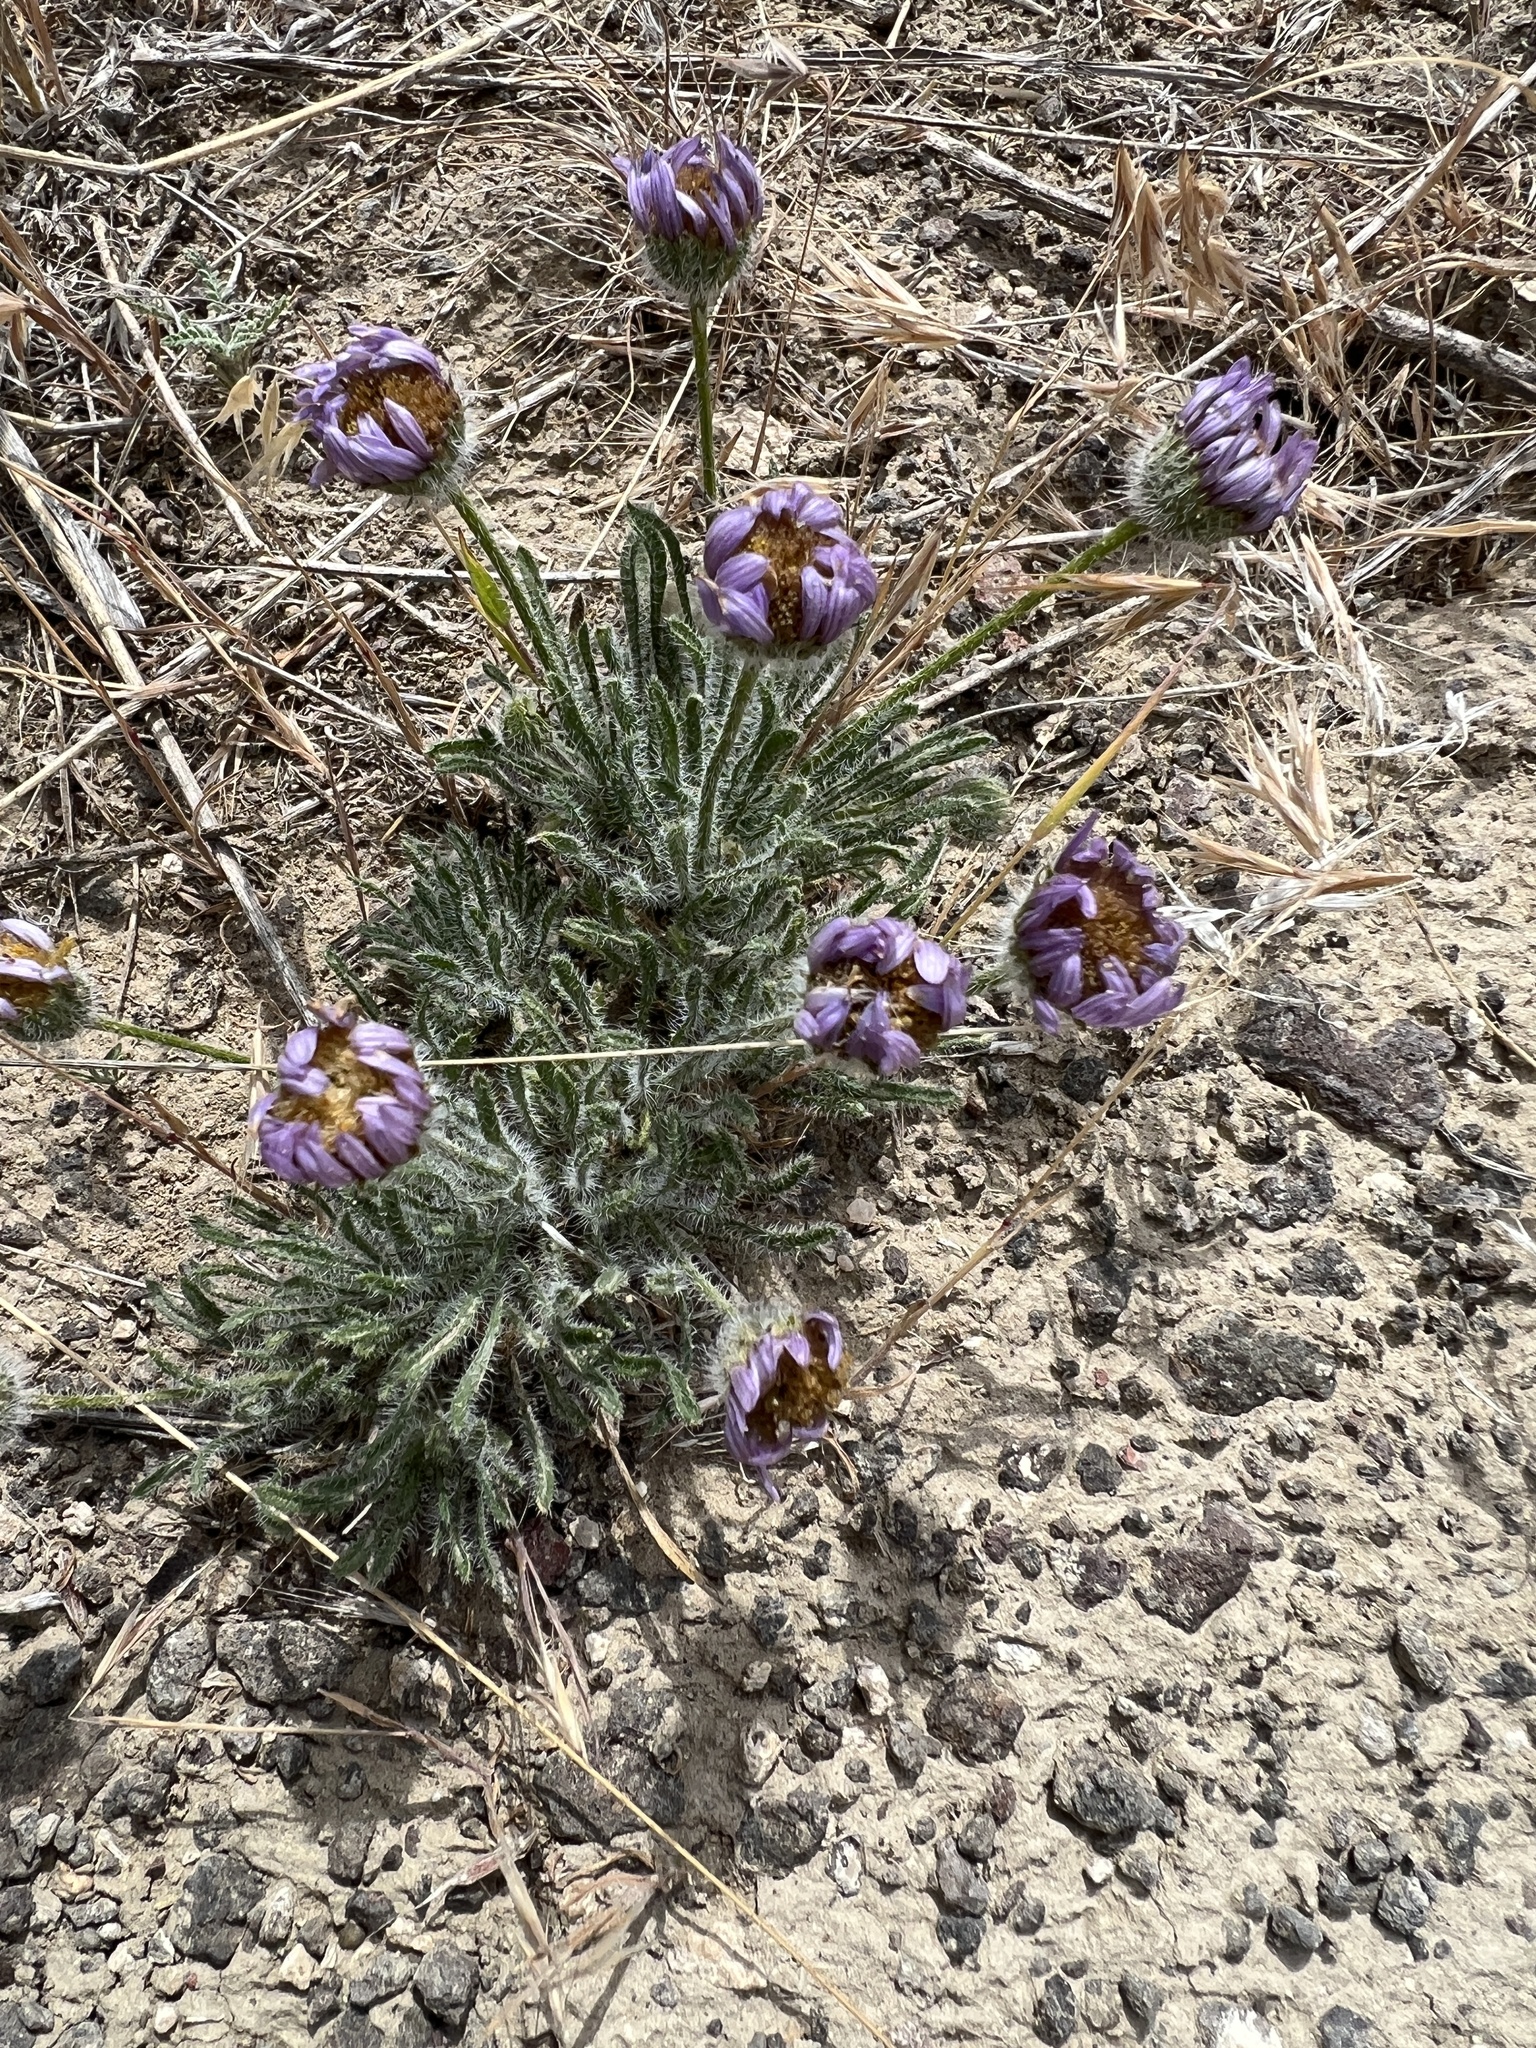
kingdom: Plantae
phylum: Tracheophyta
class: Magnoliopsida
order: Asterales
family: Asteraceae
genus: Erigeron
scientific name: Erigeron poliospermus
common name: Cushion fleabane
